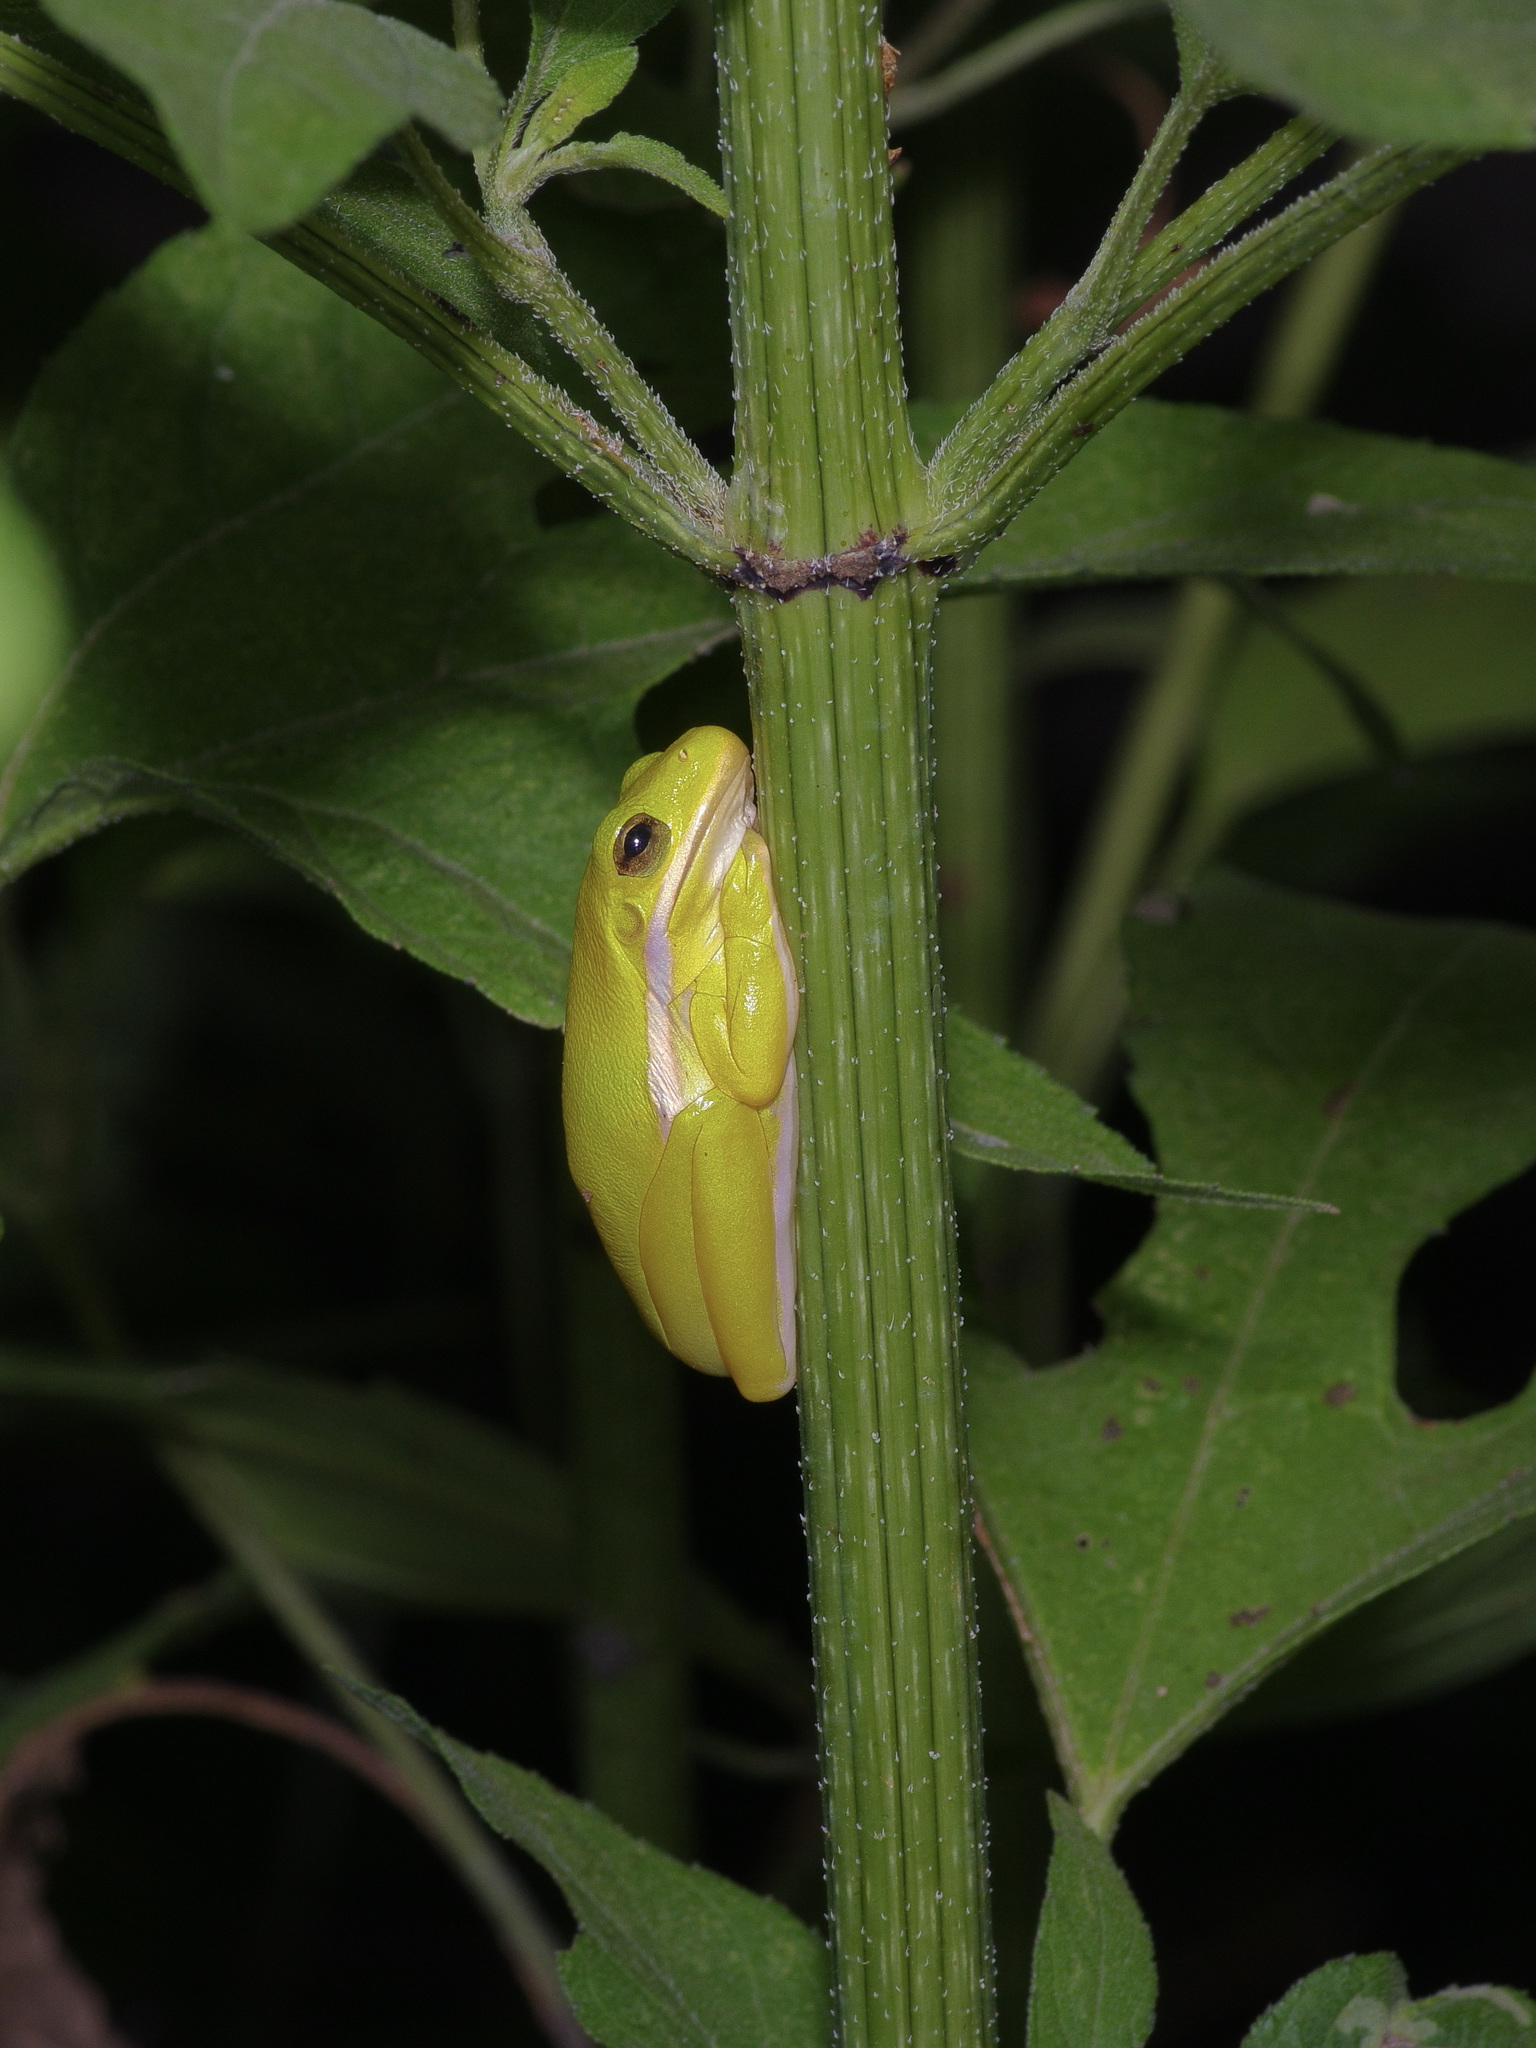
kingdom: Animalia
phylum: Chordata
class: Amphibia
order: Anura
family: Hylidae
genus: Dryophytes
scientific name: Dryophytes cinereus
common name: Green treefrog
